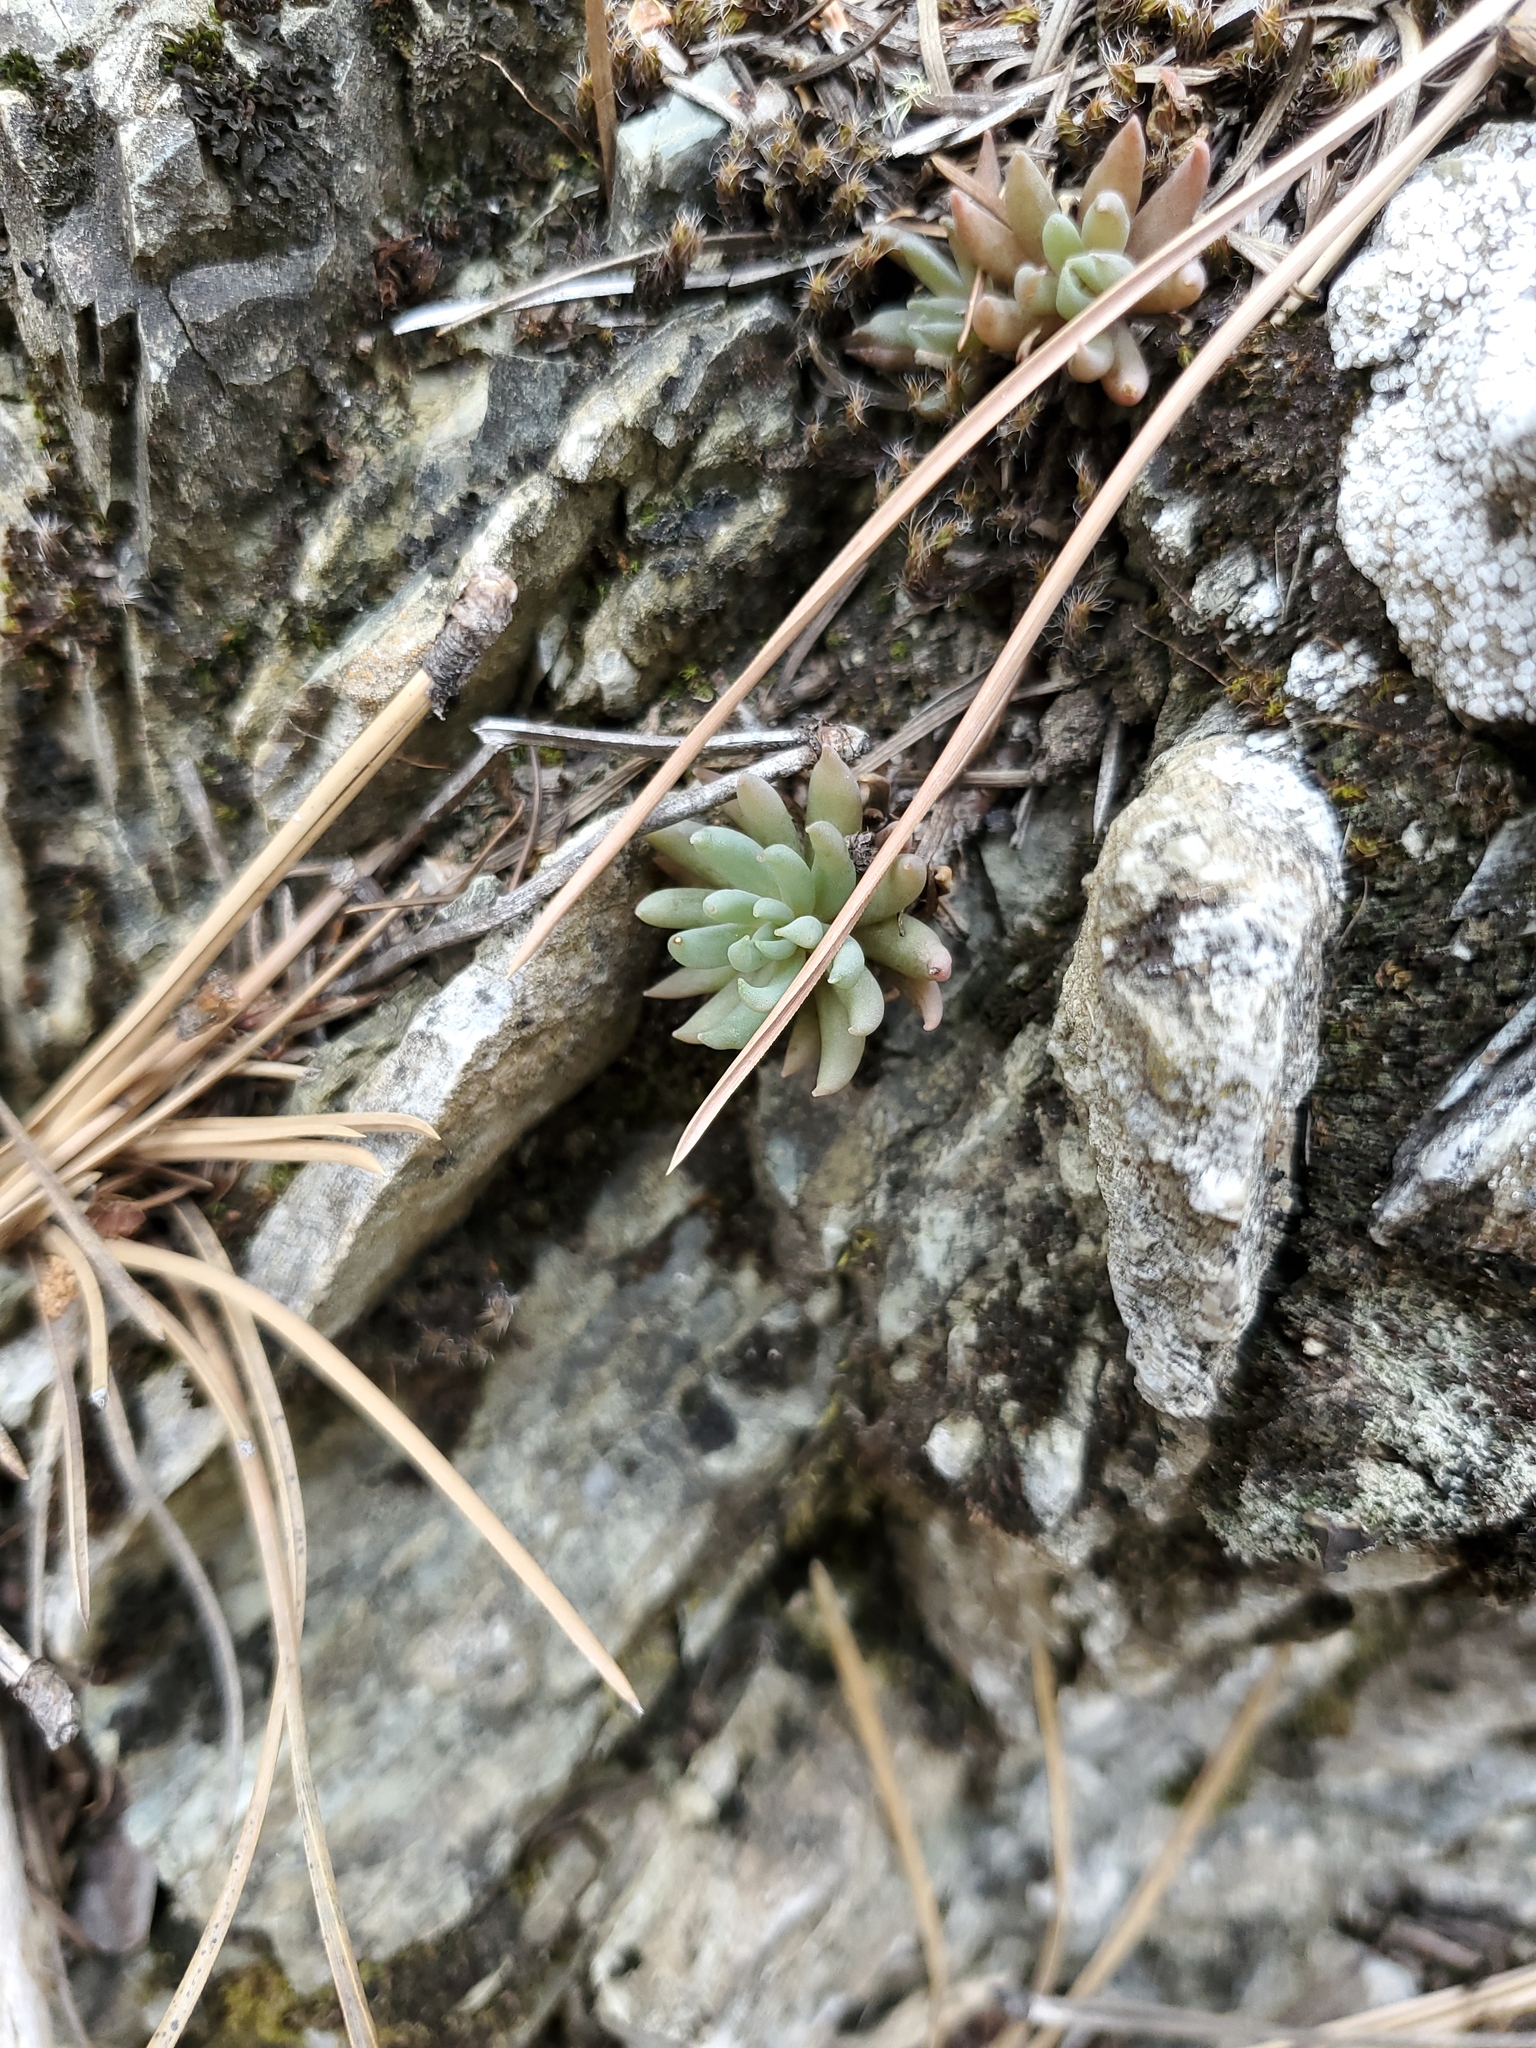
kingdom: Plantae
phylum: Tracheophyta
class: Magnoliopsida
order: Saxifragales
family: Crassulaceae
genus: Sedum
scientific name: Sedum lanceolatum
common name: Common stonecrop
